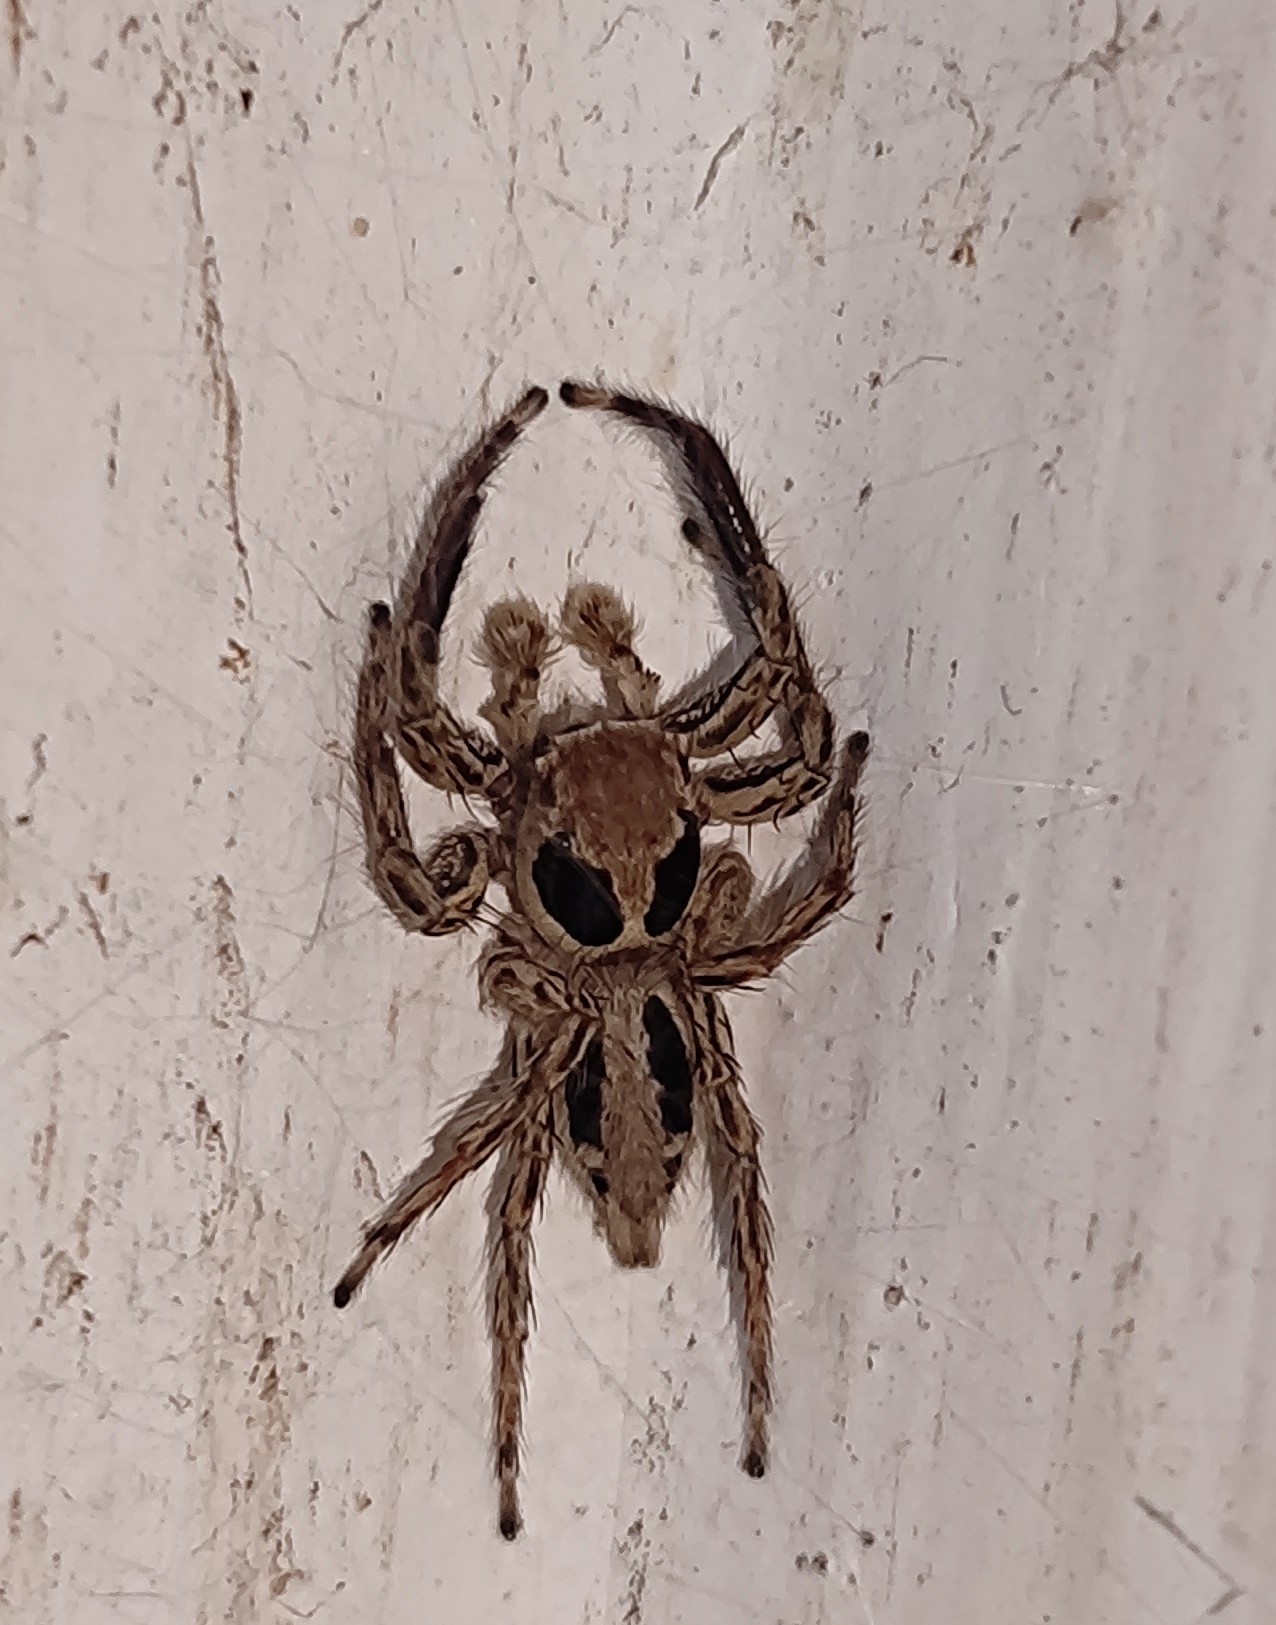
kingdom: Animalia
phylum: Arthropoda
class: Arachnida
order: Araneae
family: Salticidae
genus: Plexippus
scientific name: Plexippus petersi
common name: Jumping spider
